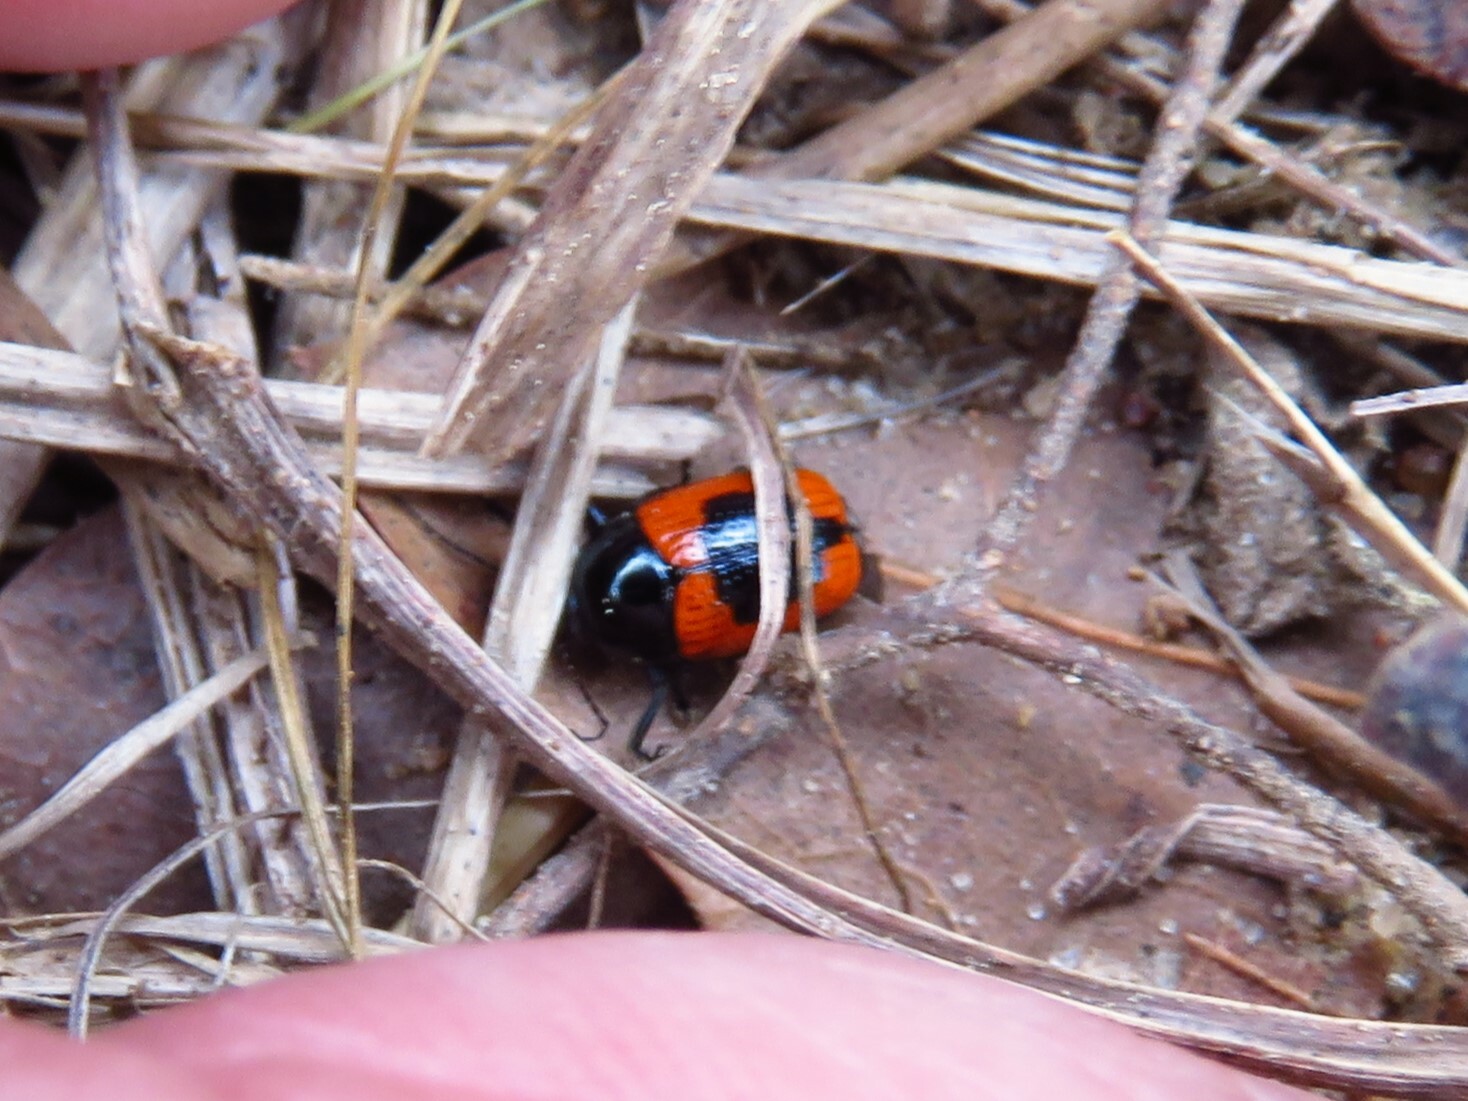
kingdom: Animalia
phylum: Arthropoda
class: Insecta
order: Coleoptera
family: Chrysomelidae
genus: Cryptocephalus
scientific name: Cryptocephalus notatus
